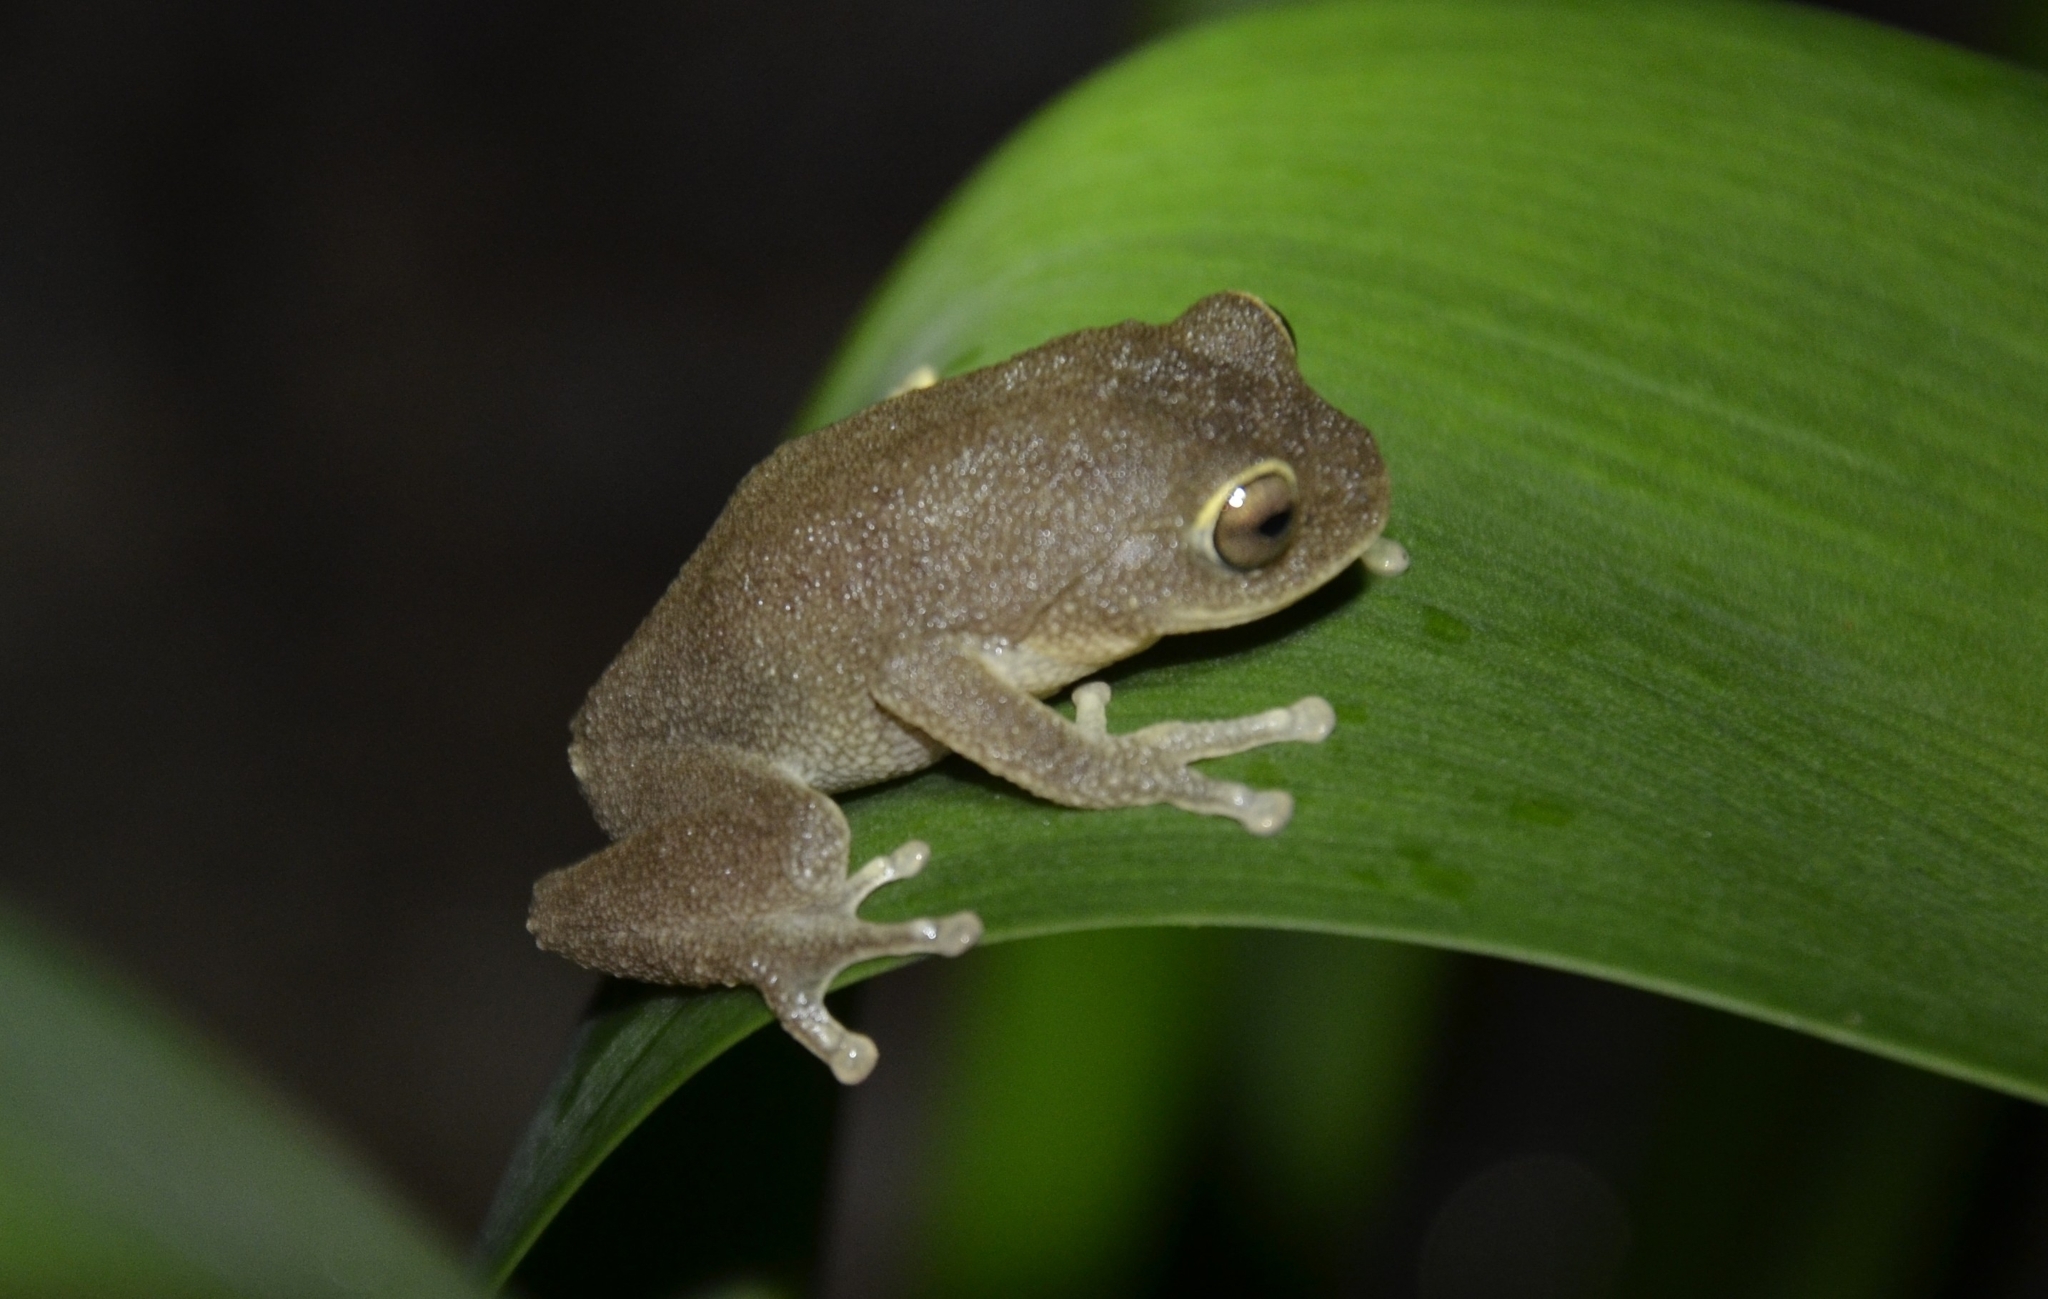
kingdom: Animalia
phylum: Chordata
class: Amphibia
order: Anura
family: Rhacophoridae
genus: Raorchestes
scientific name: Raorchestes ponmudi
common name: Large ponmudi bush frog
